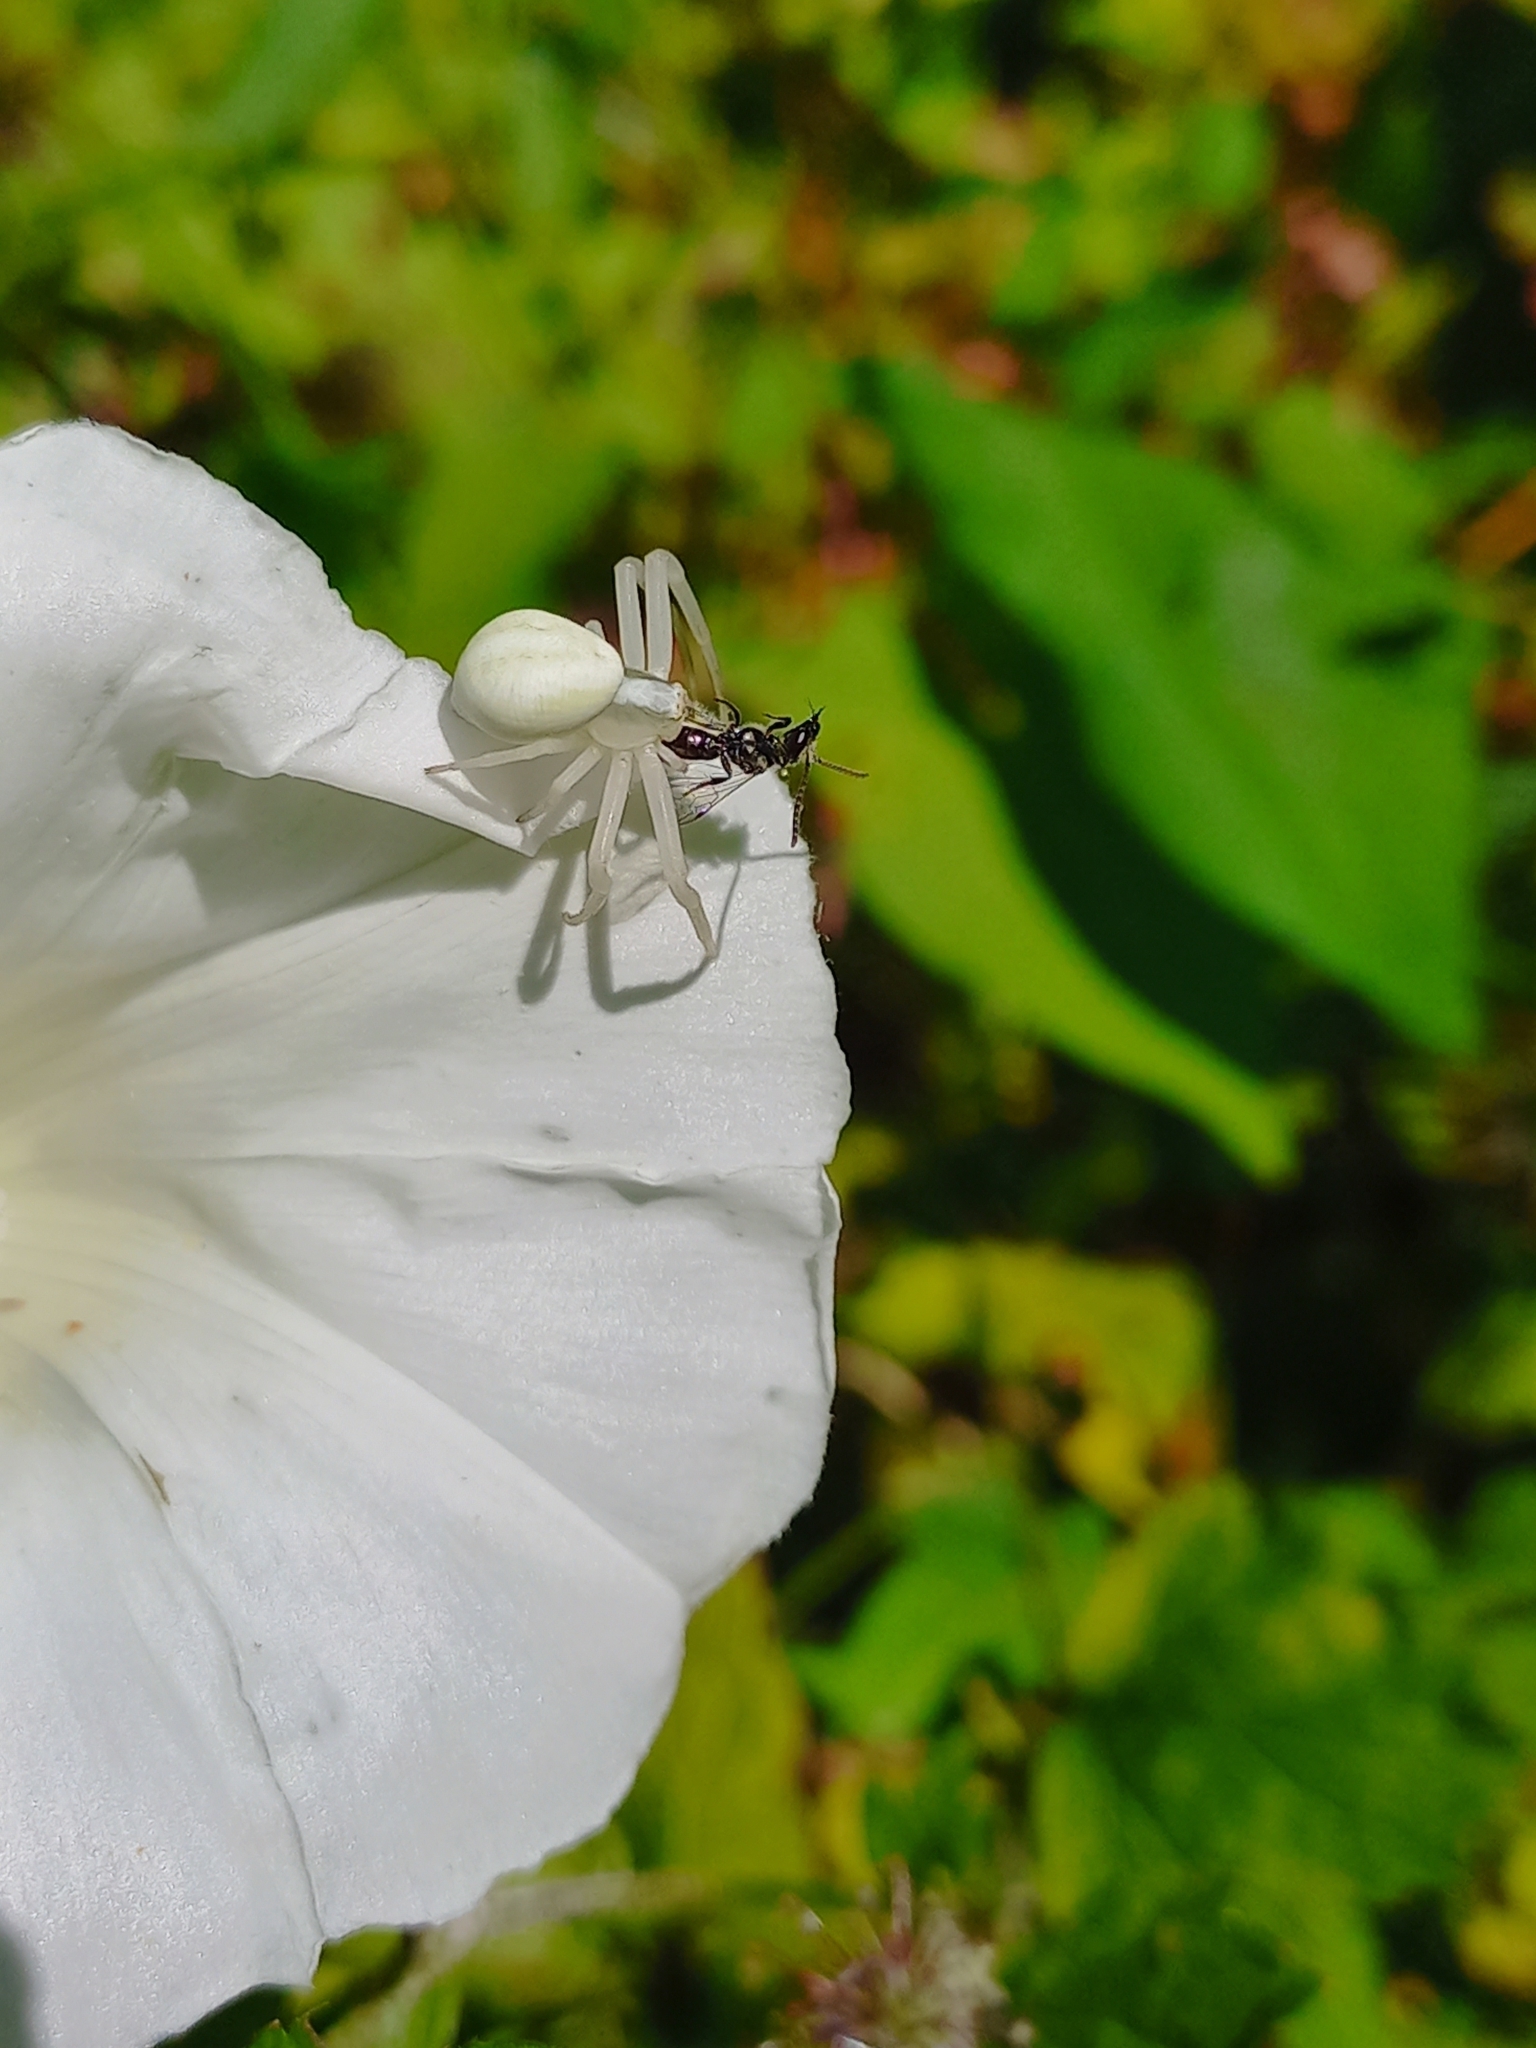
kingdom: Animalia
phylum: Arthropoda
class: Arachnida
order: Araneae
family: Thomisidae
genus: Misumena
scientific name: Misumena vatia
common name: Goldenrod crab spider
